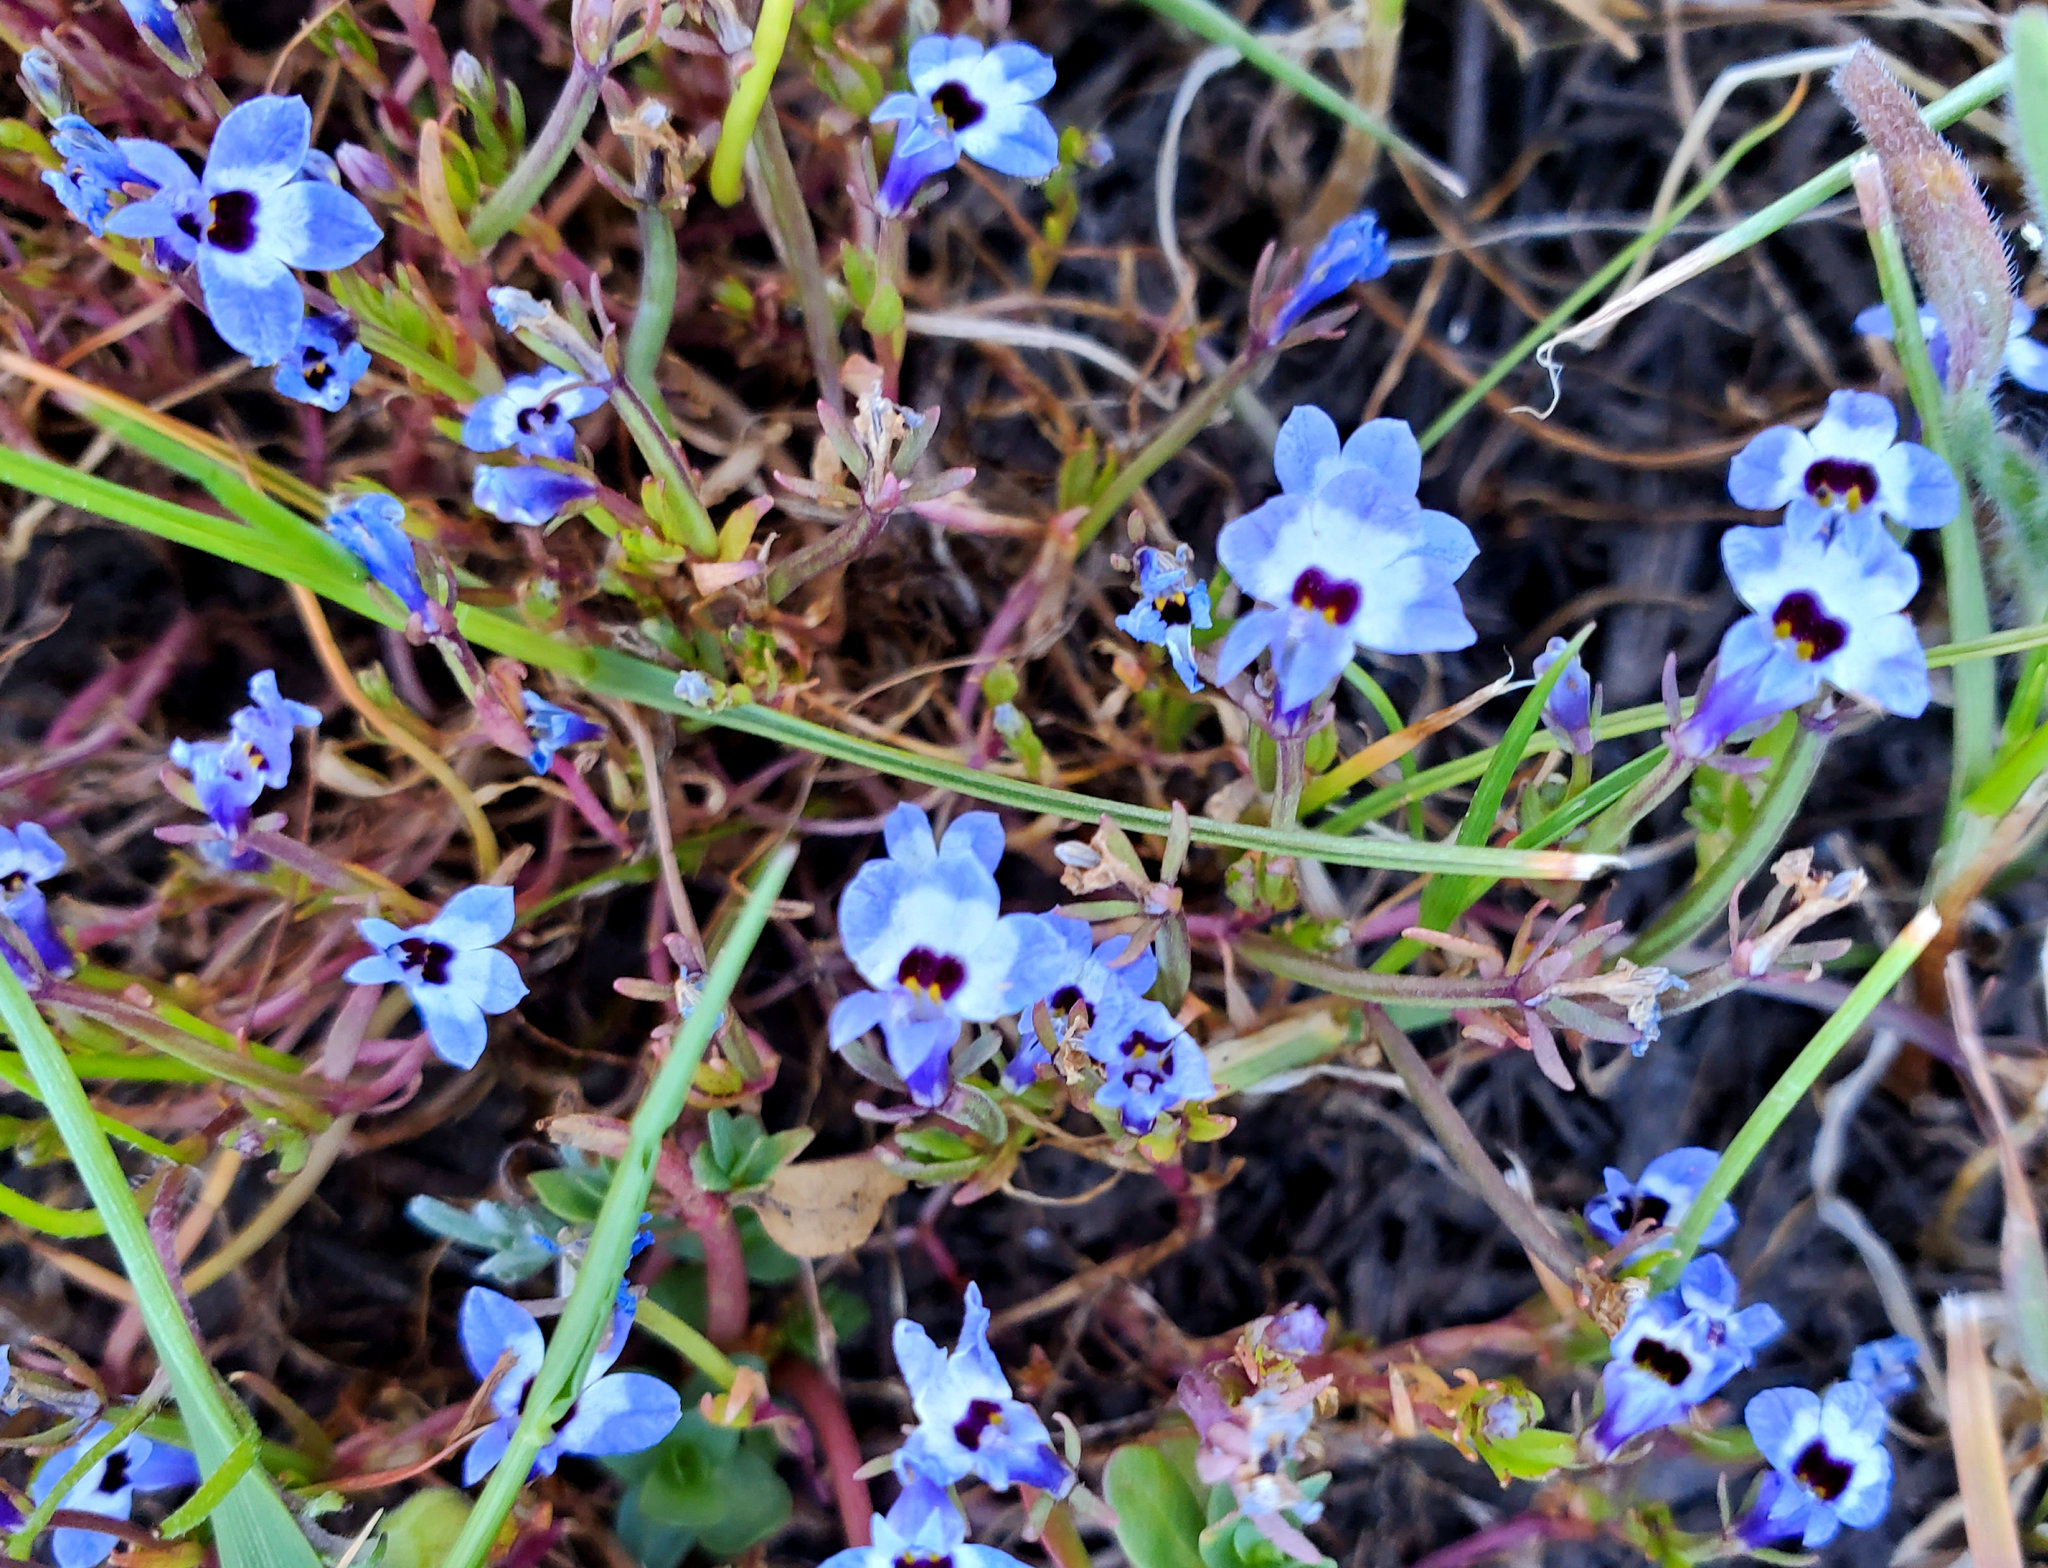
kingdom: Plantae
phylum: Tracheophyta
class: Magnoliopsida
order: Asterales
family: Campanulaceae
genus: Downingia
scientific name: Downingia concolor
